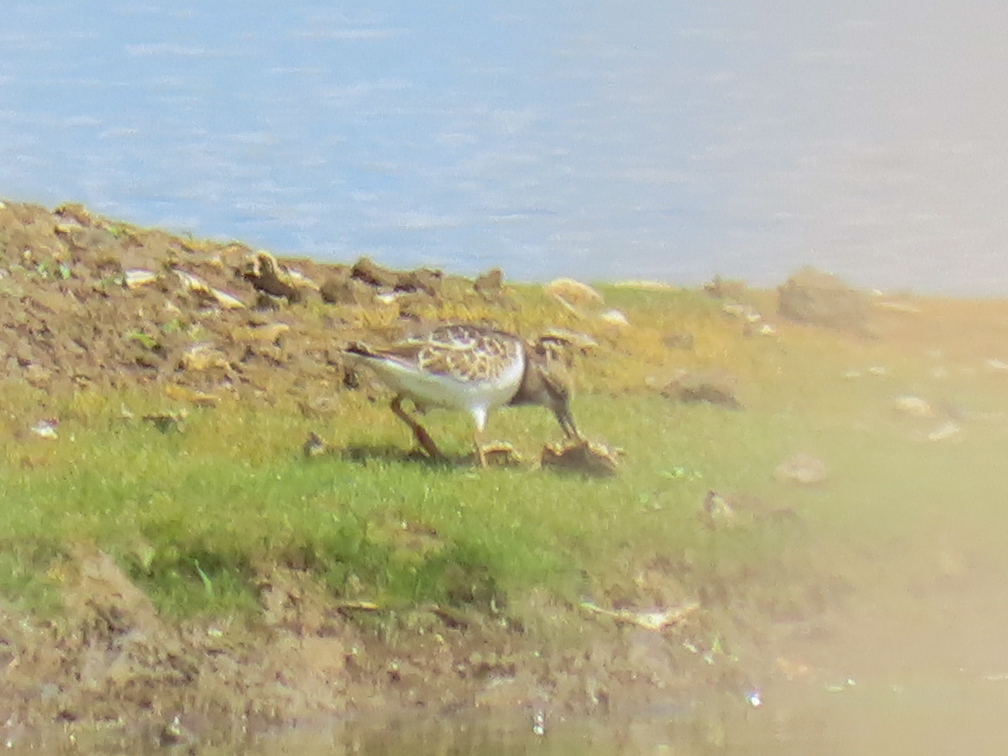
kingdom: Animalia
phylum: Chordata
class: Aves
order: Charadriiformes
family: Scolopacidae
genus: Arenaria
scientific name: Arenaria interpres
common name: Ruddy turnstone
